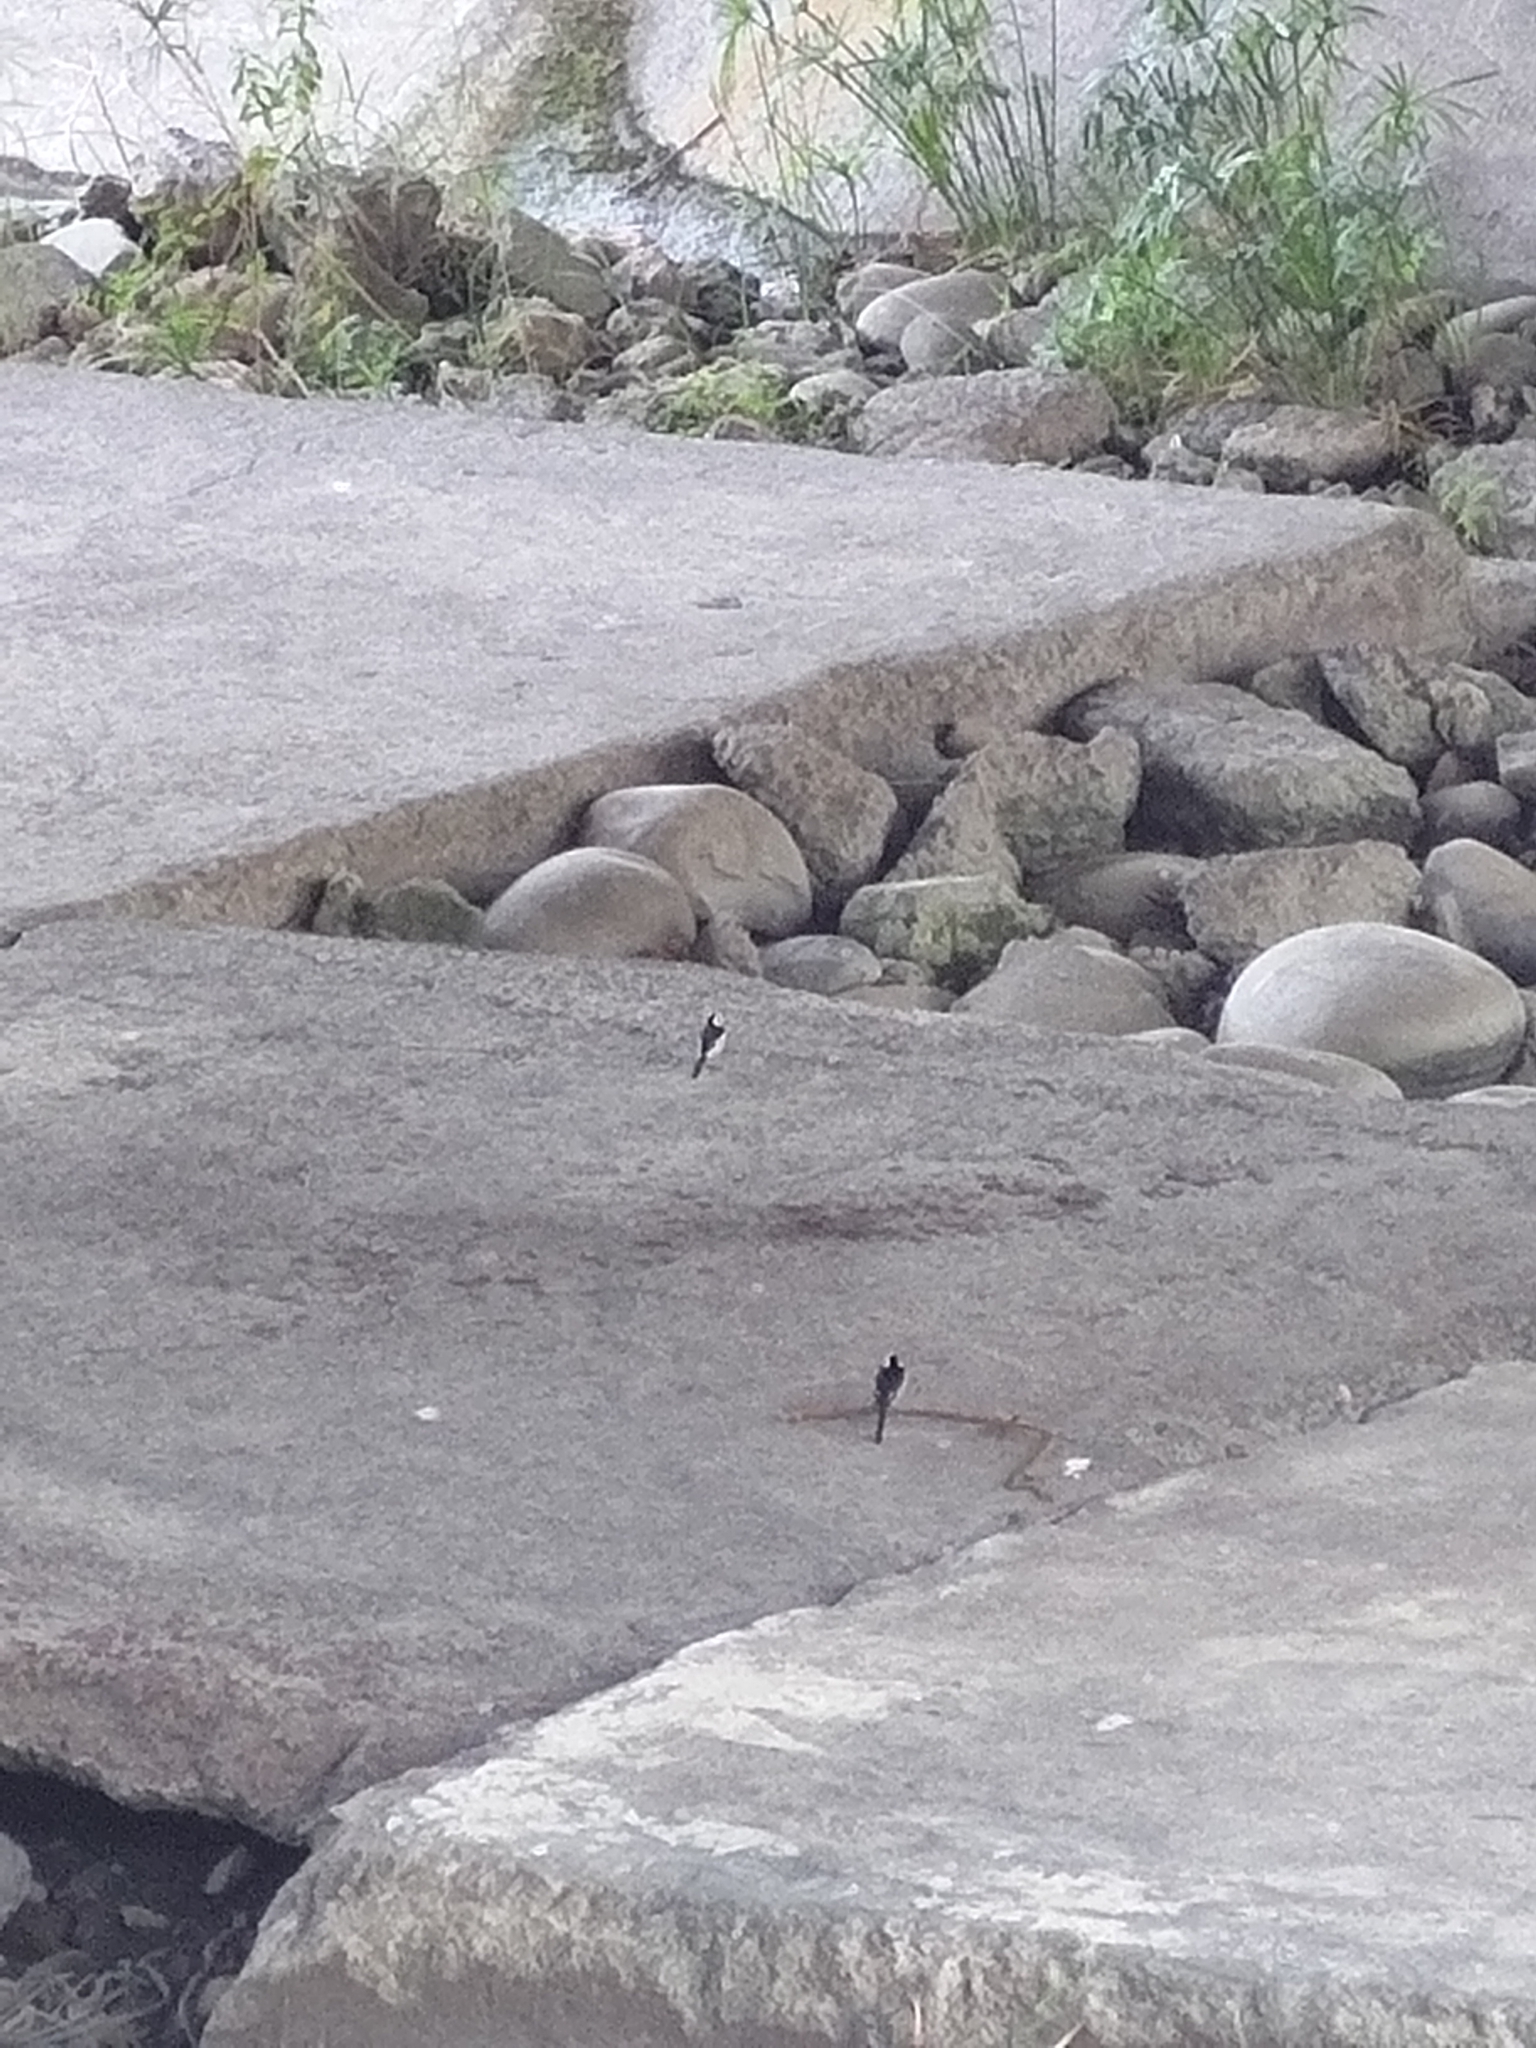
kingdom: Animalia
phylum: Chordata
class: Aves
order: Passeriformes
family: Motacillidae
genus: Motacilla
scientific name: Motacilla alba
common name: White wagtail
